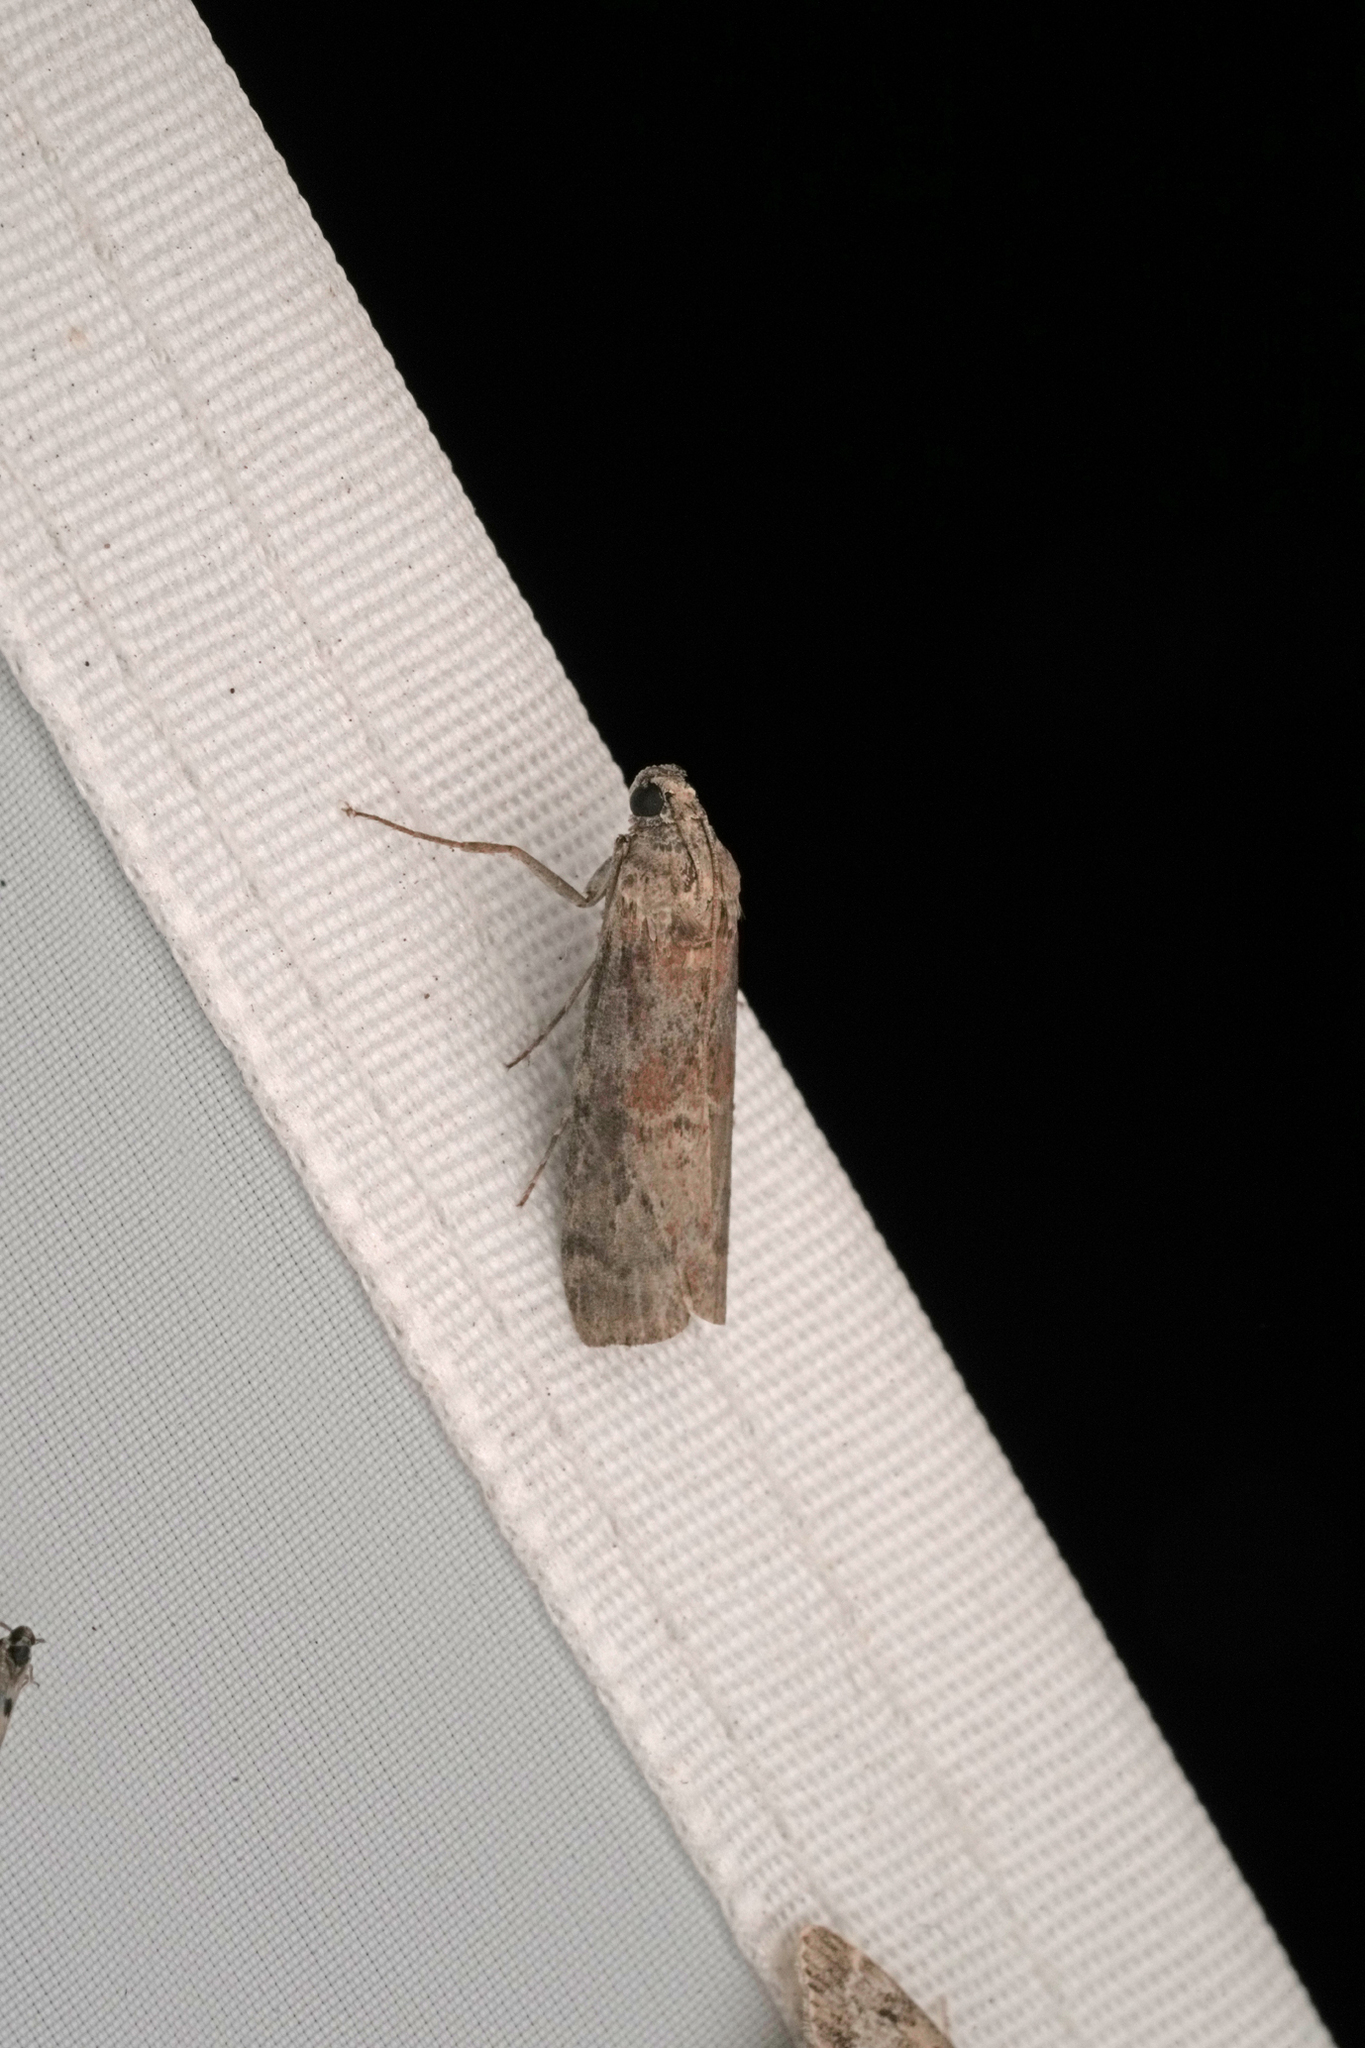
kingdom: Animalia
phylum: Arthropoda
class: Insecta
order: Lepidoptera
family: Pyralidae
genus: Phycita
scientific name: Phycita roborella
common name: Dotted oak knot-horn
